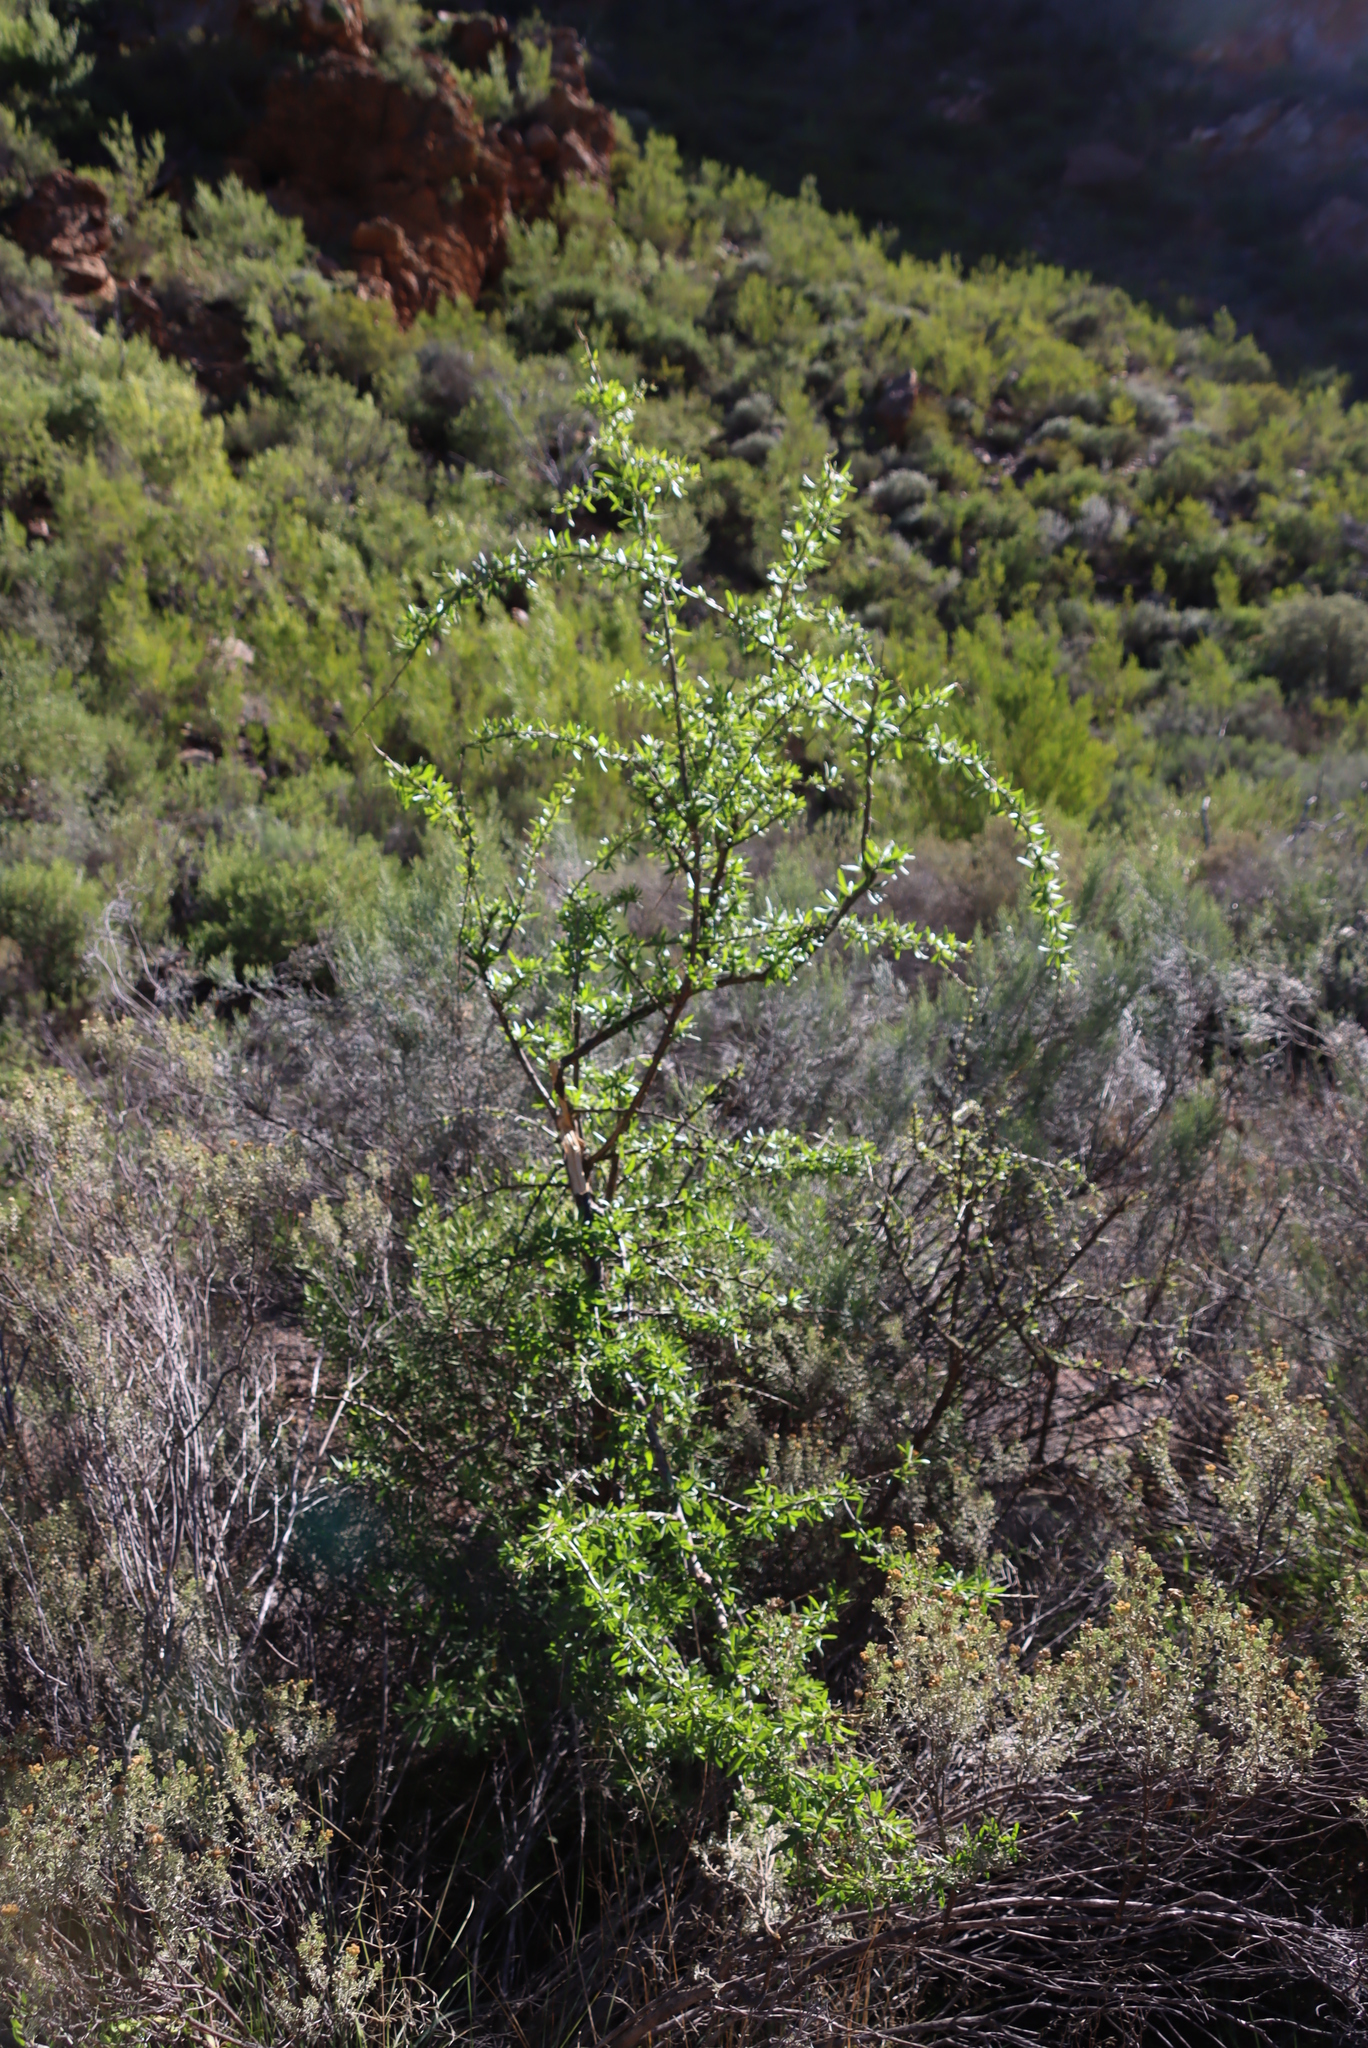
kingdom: Plantae
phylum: Tracheophyta
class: Magnoliopsida
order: Solanales
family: Solanaceae
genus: Lycium
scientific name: Lycium oxycarpum
